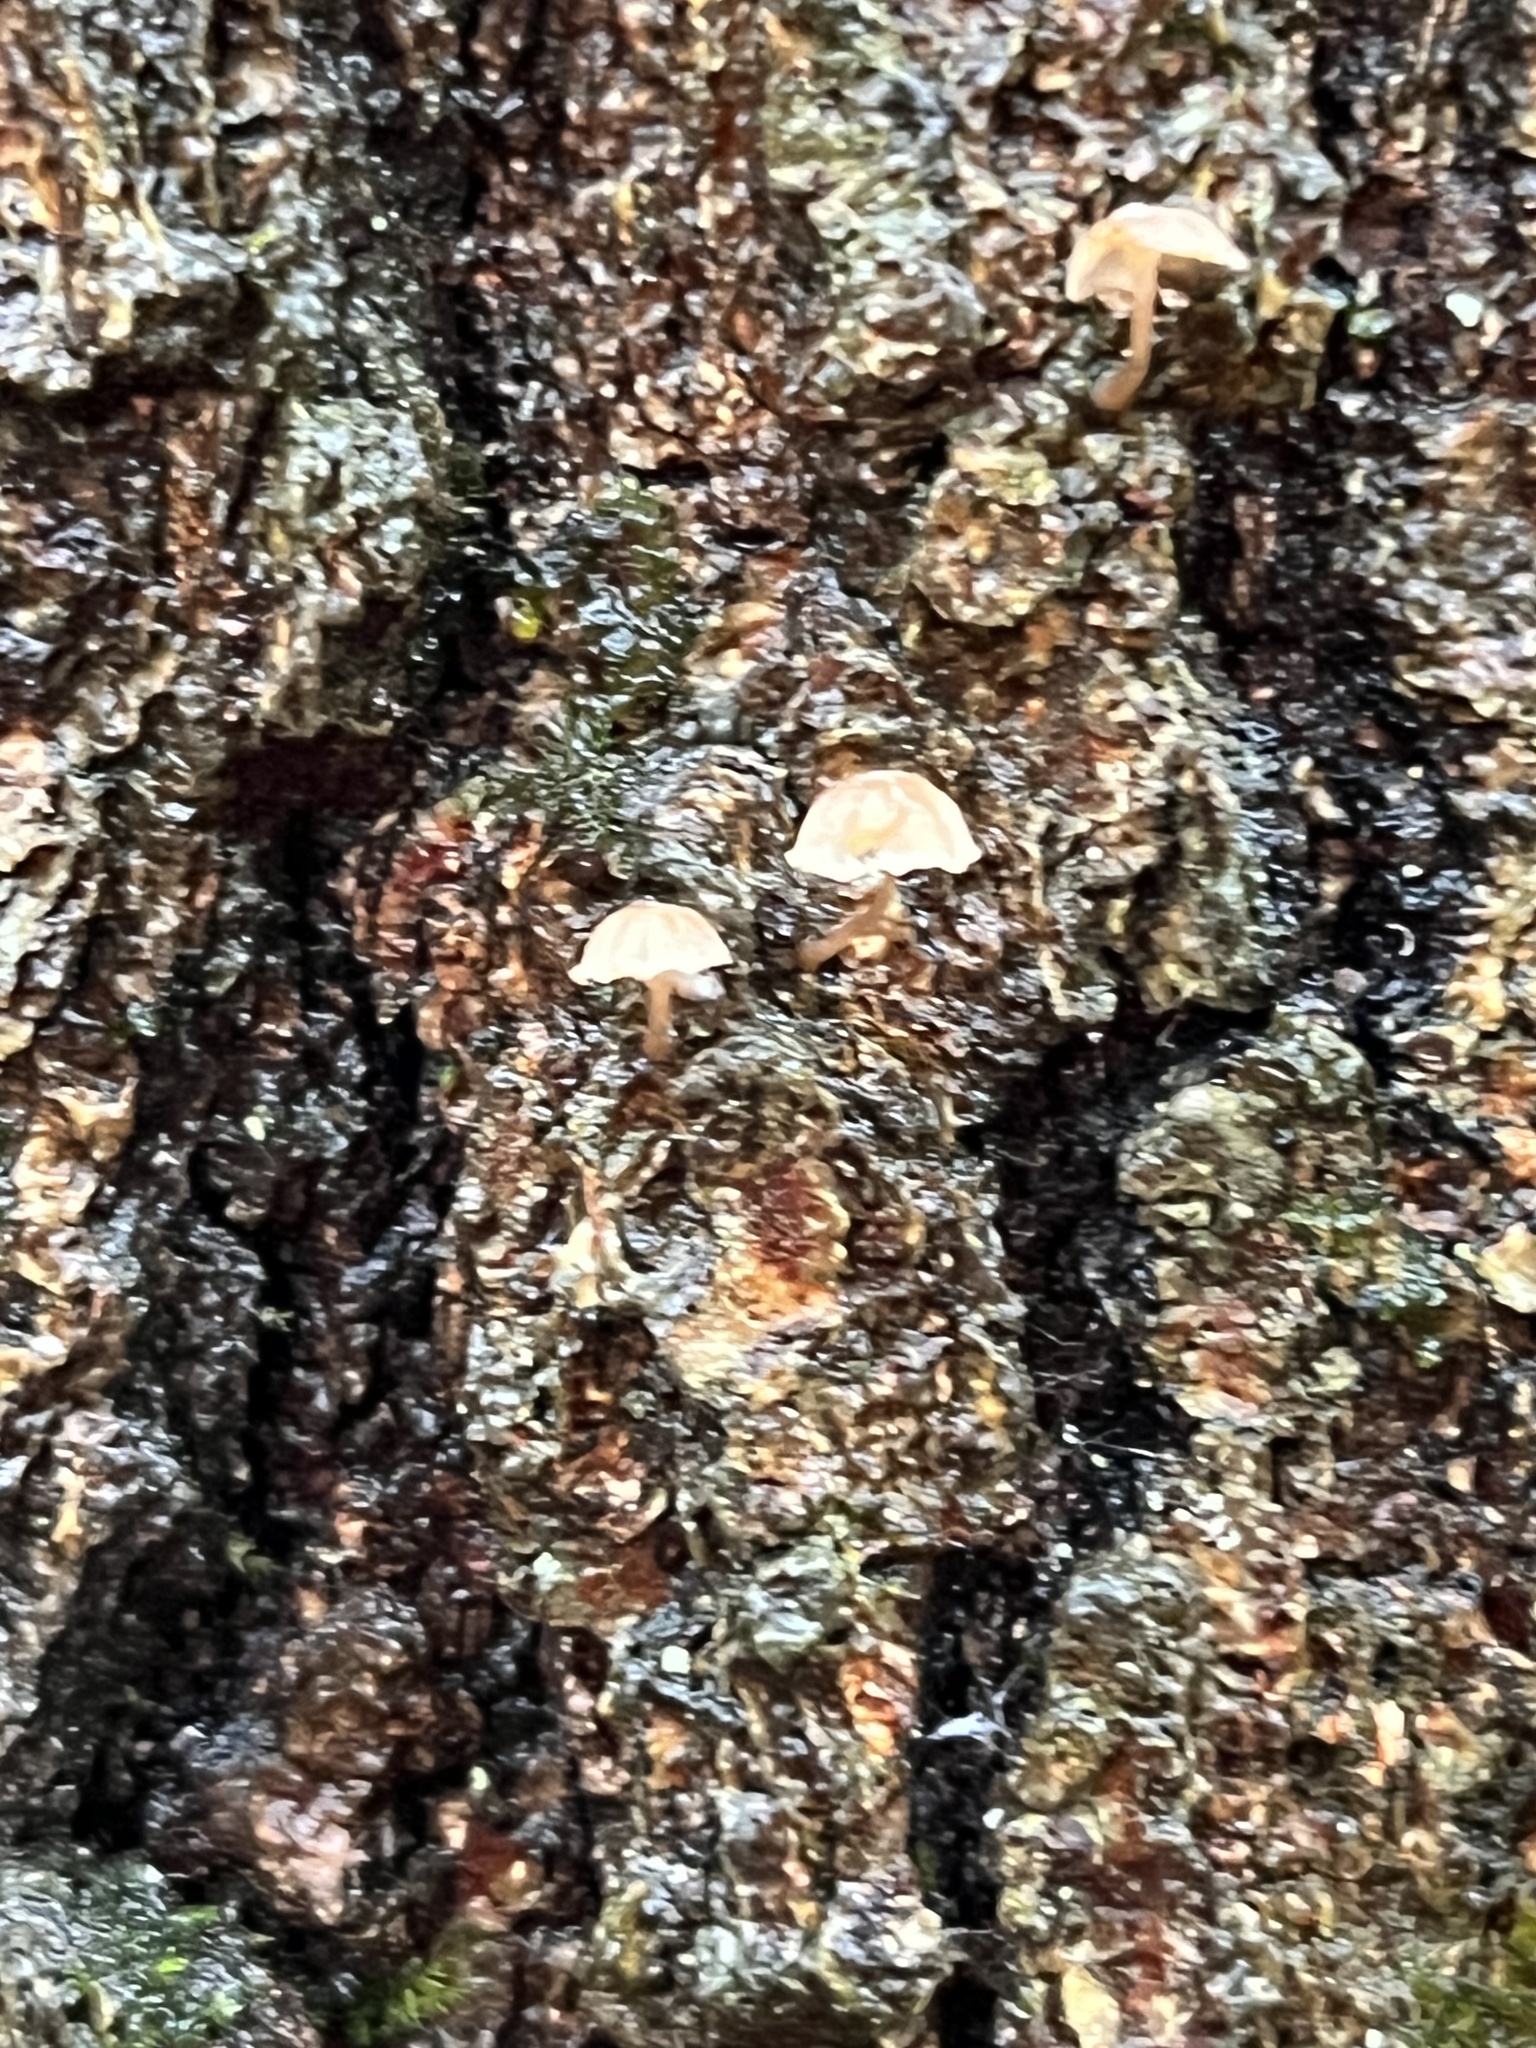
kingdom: Fungi
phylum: Basidiomycota
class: Agaricomycetes
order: Agaricales
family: Mycenaceae
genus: Mycena
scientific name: Mycena corticola
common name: Bark mycena
